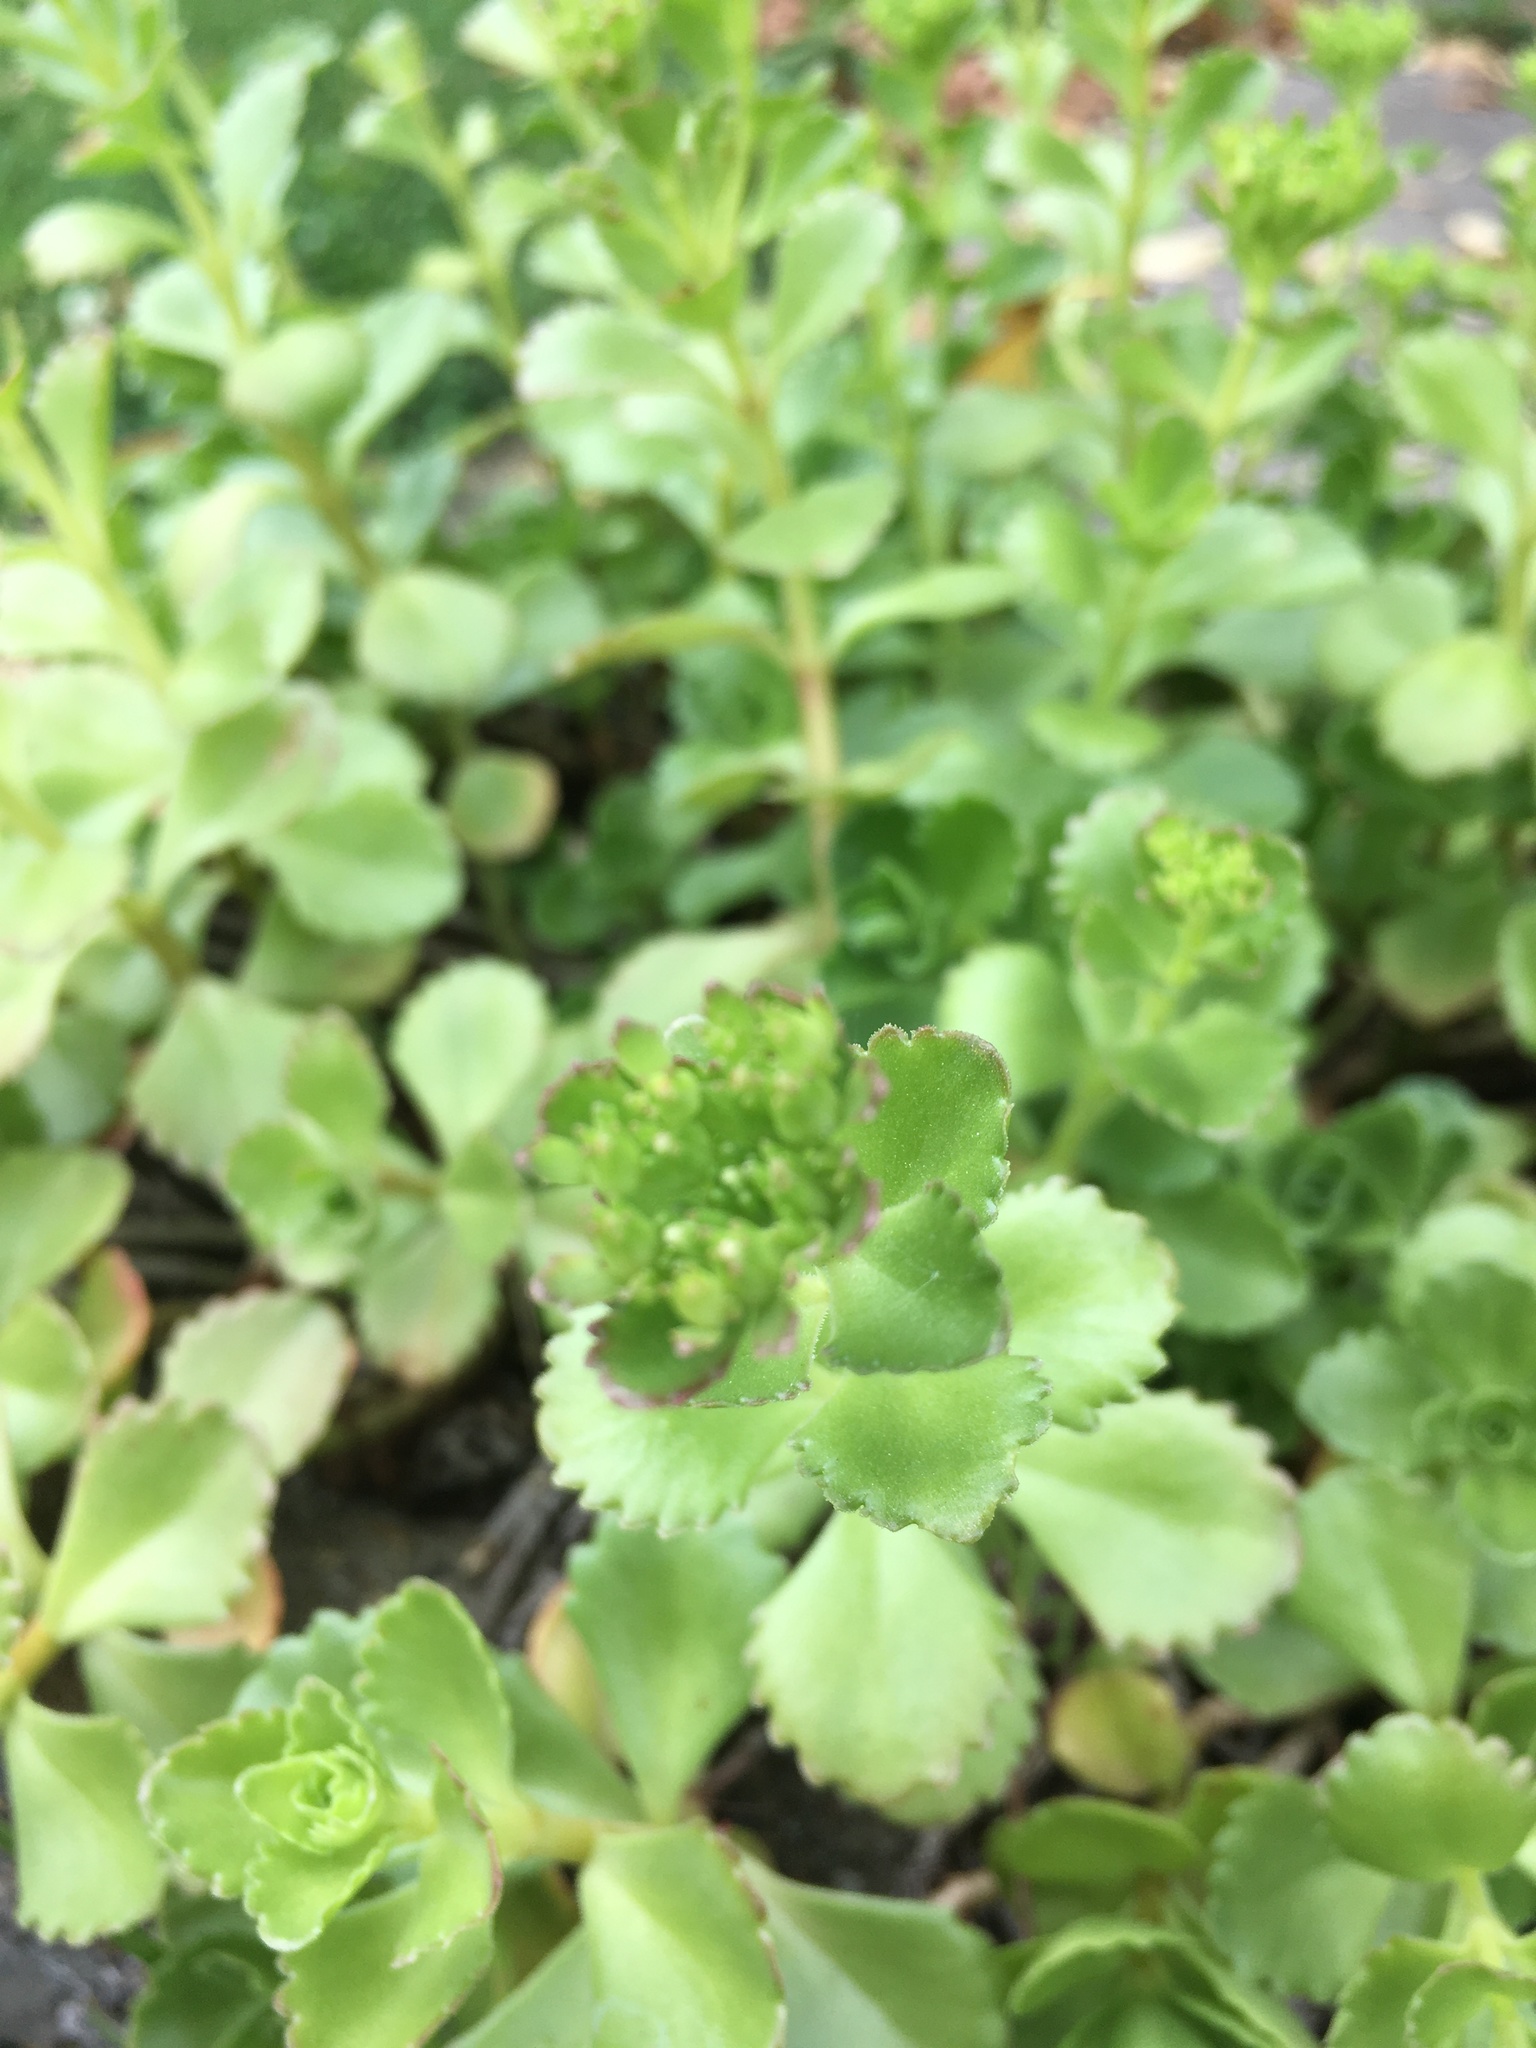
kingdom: Plantae
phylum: Tracheophyta
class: Magnoliopsida
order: Saxifragales
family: Crassulaceae
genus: Phedimus
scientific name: Phedimus spurius
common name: Caucasian stonecrop
